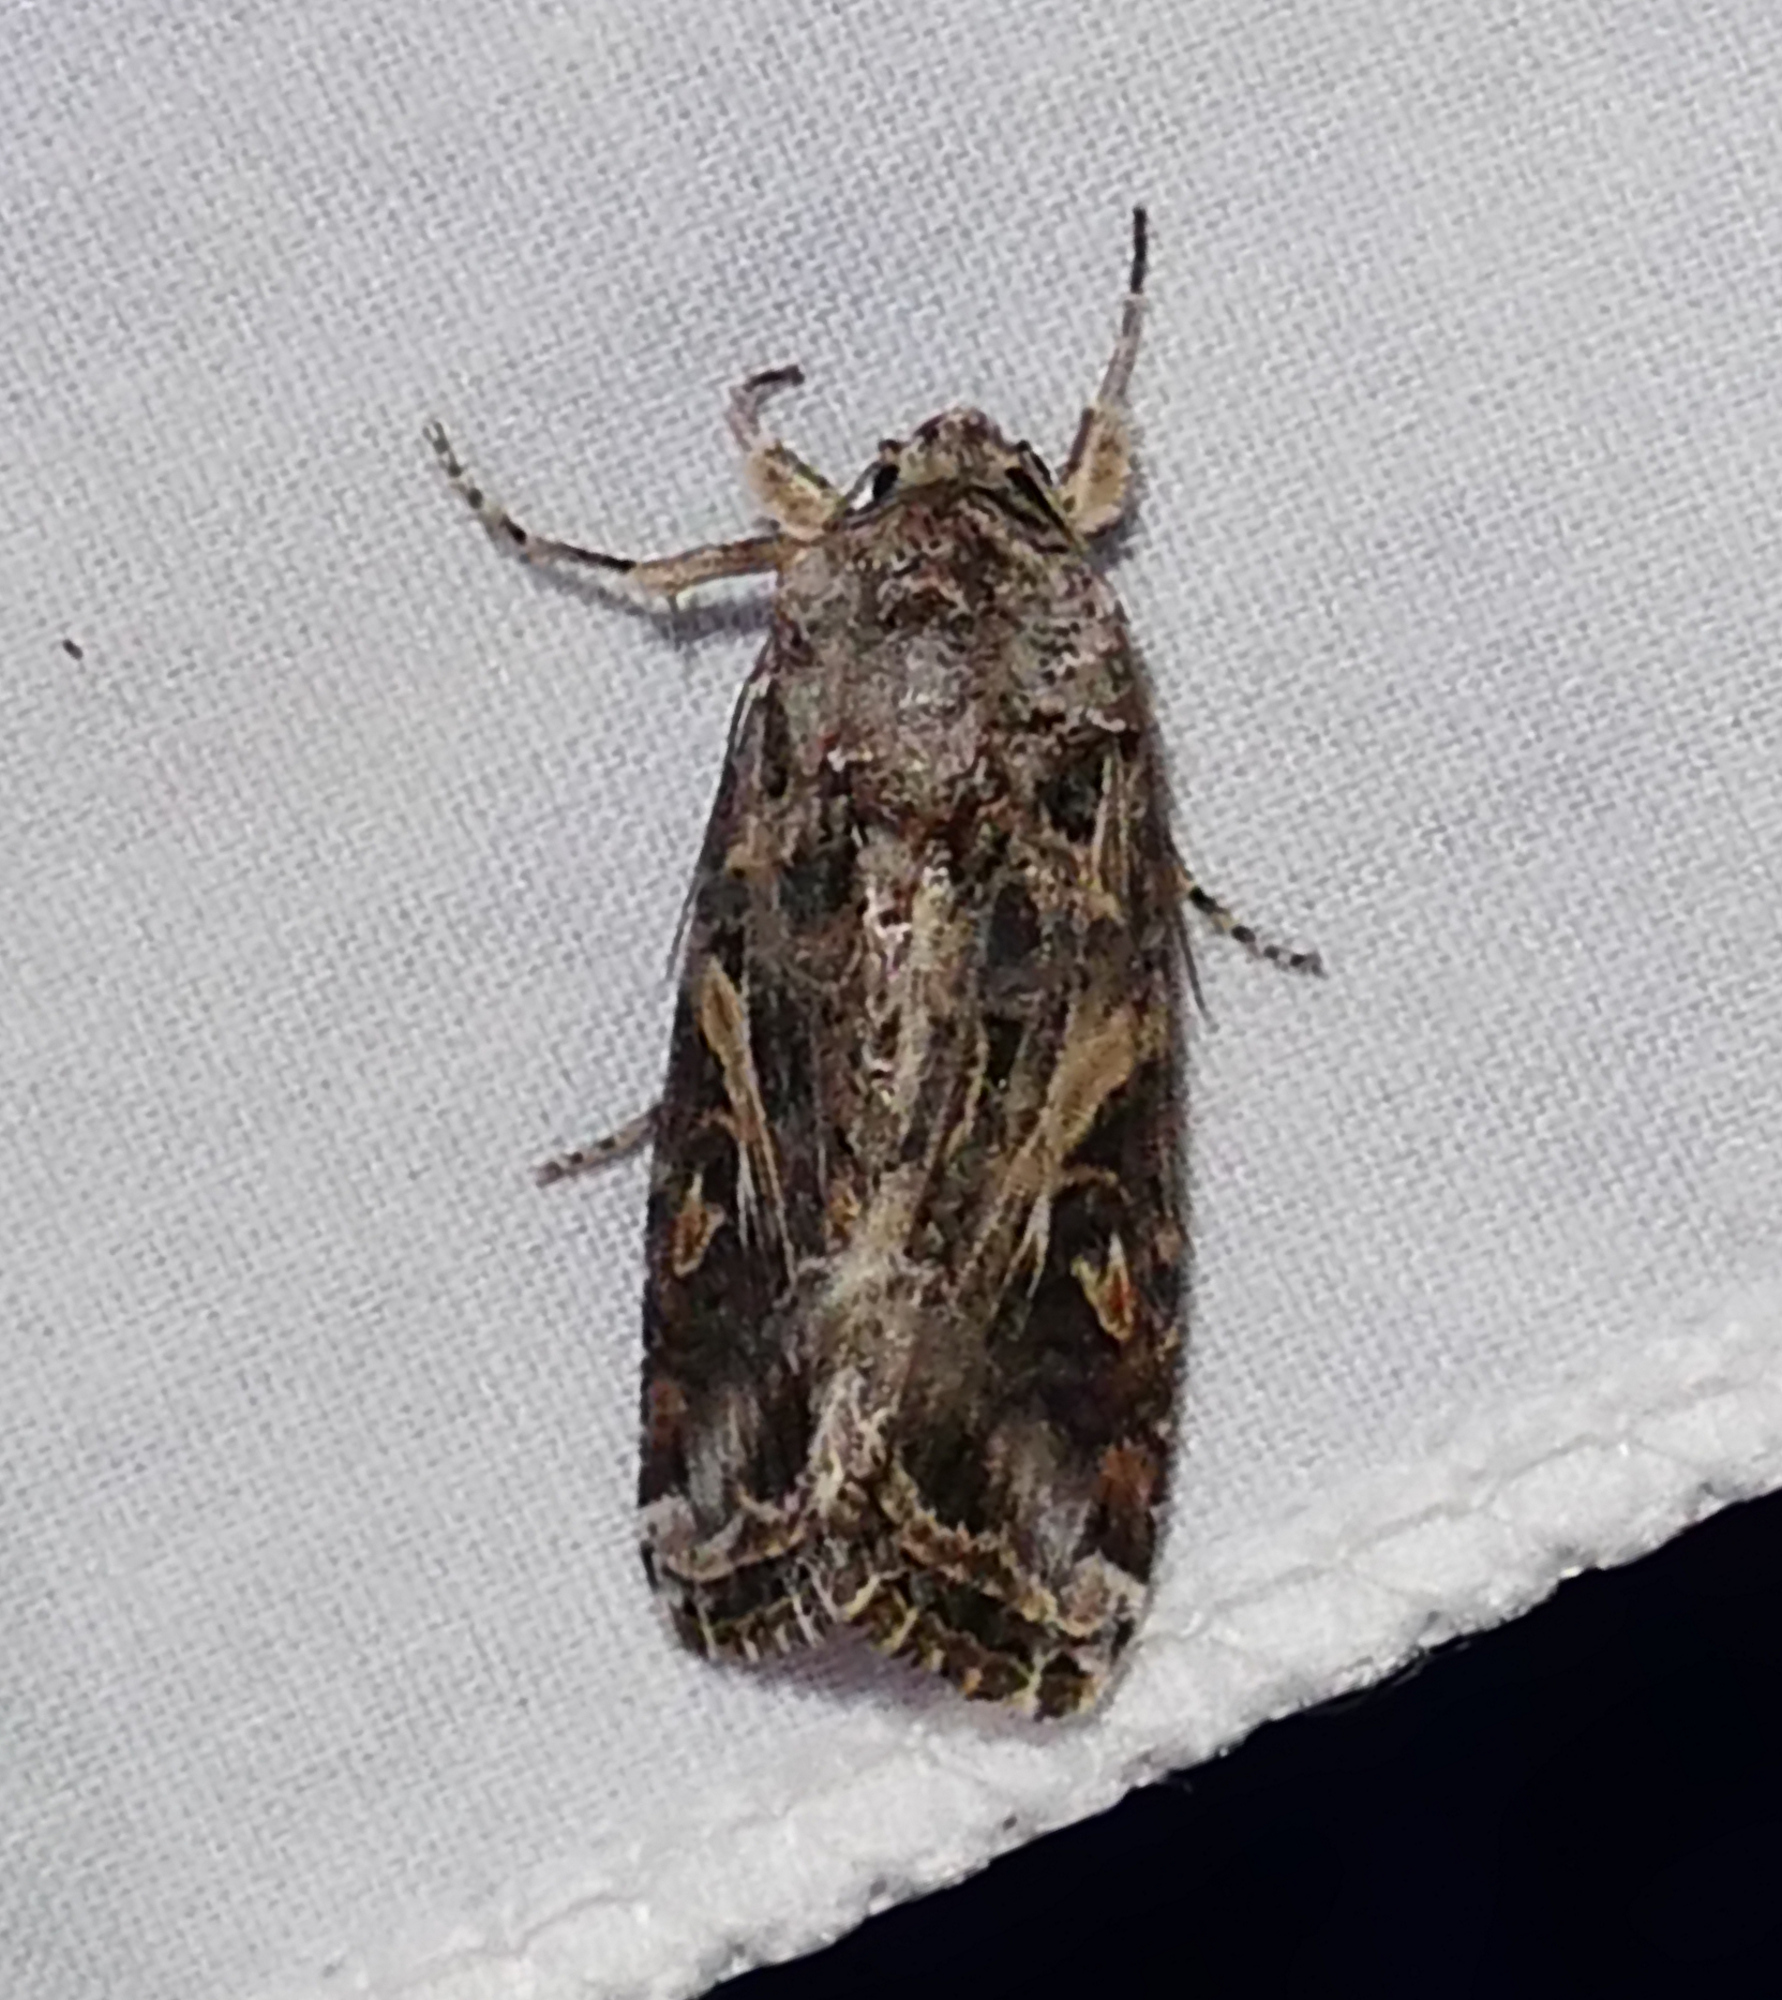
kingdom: Animalia
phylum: Arthropoda
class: Insecta
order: Lepidoptera
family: Noctuidae
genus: Spodoptera
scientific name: Spodoptera ornithogalli
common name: Yellow-striped armyworm
